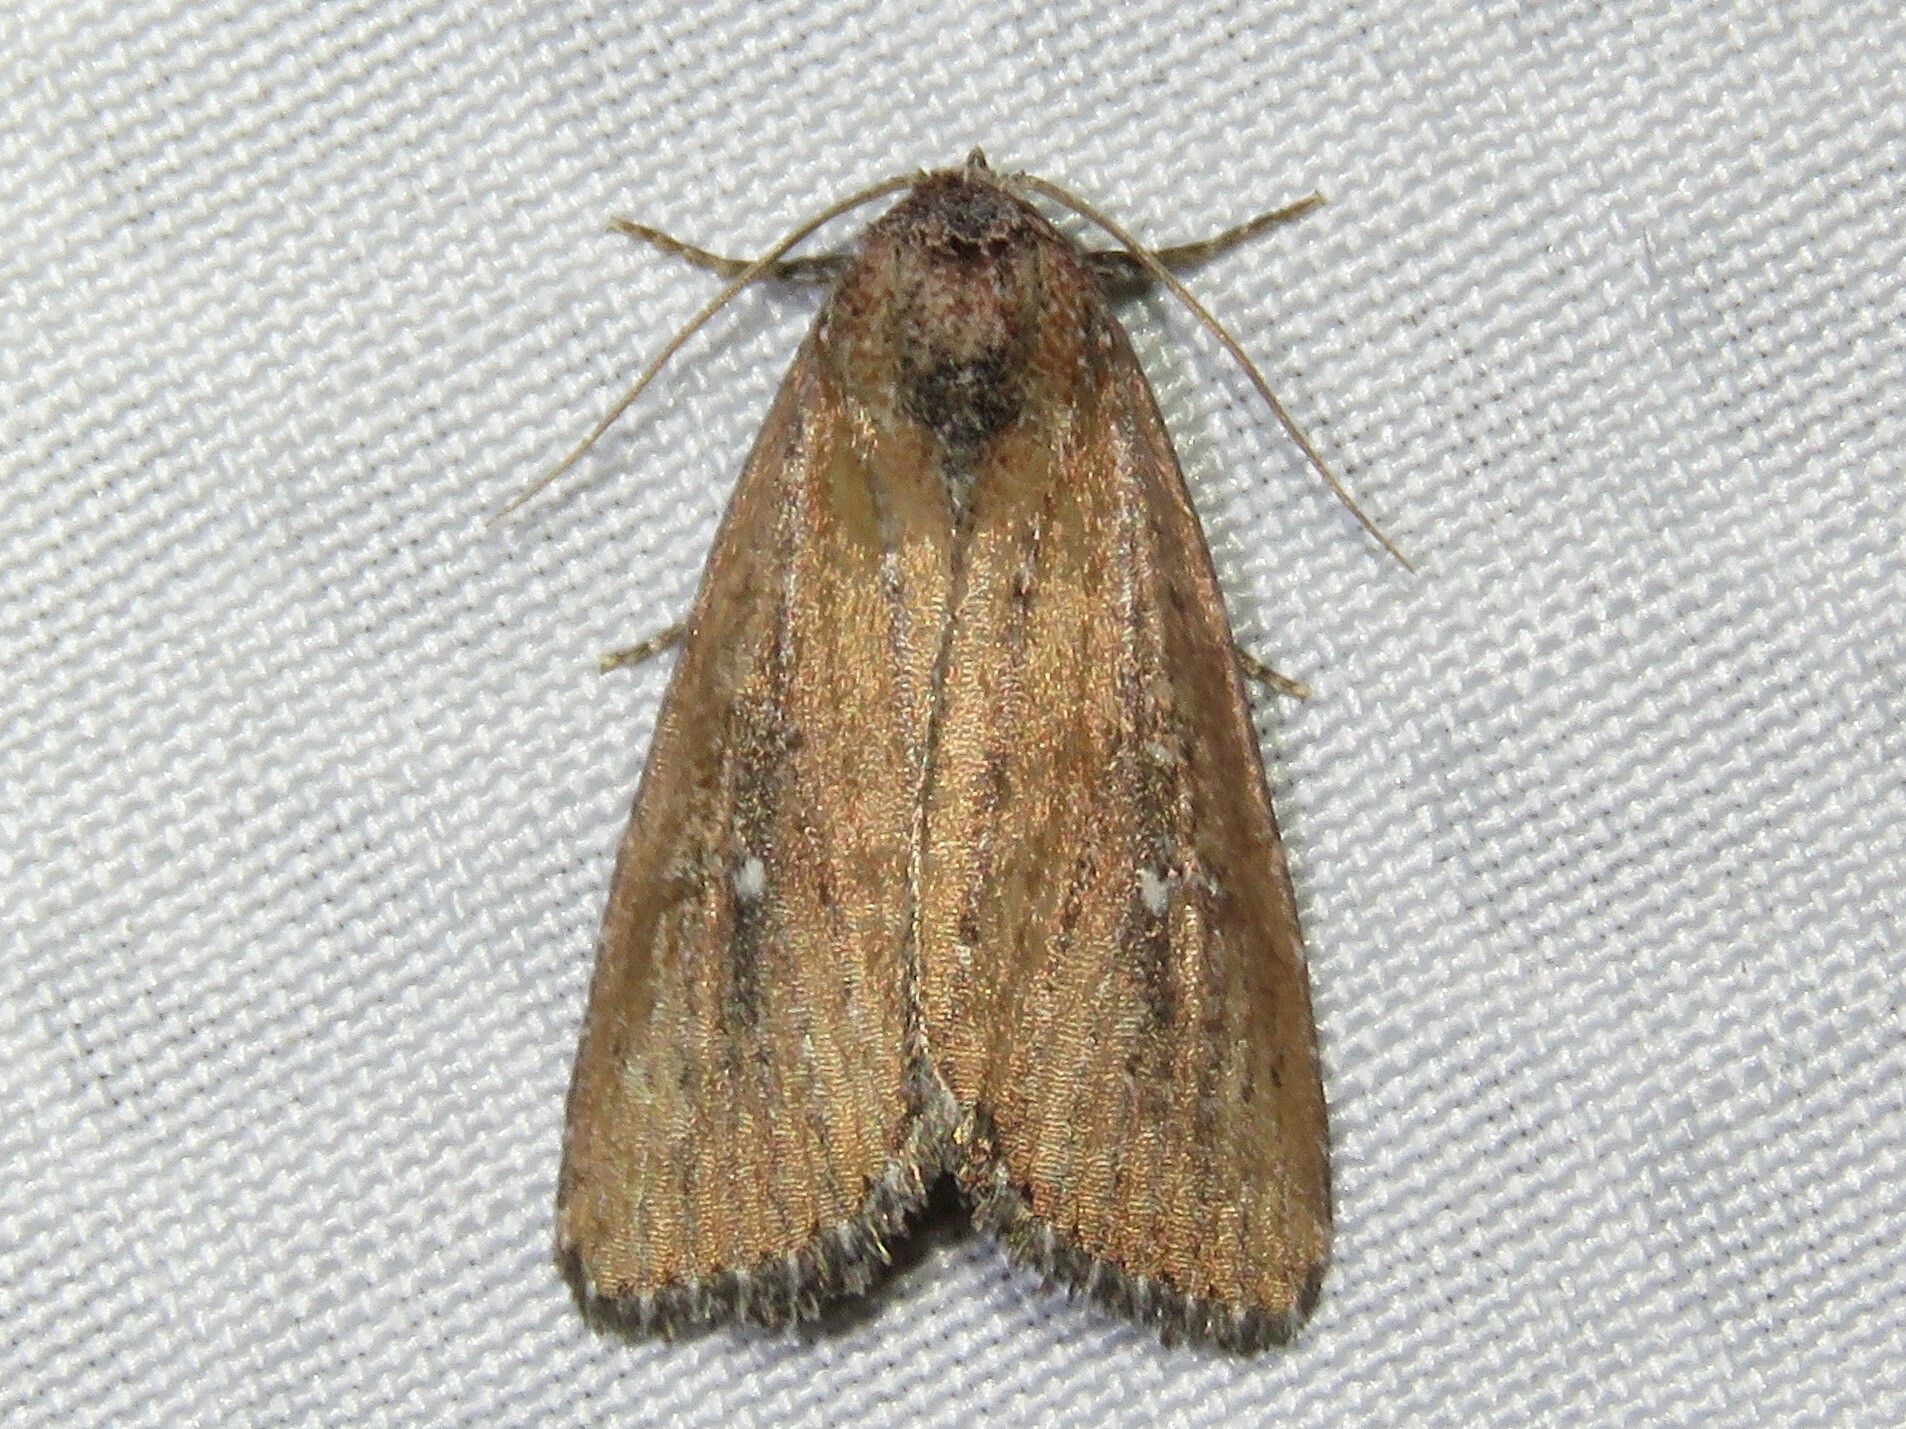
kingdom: Animalia
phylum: Arthropoda
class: Insecta
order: Lepidoptera
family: Noctuidae
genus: Condica
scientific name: Condica videns
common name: White-dotted groundling
